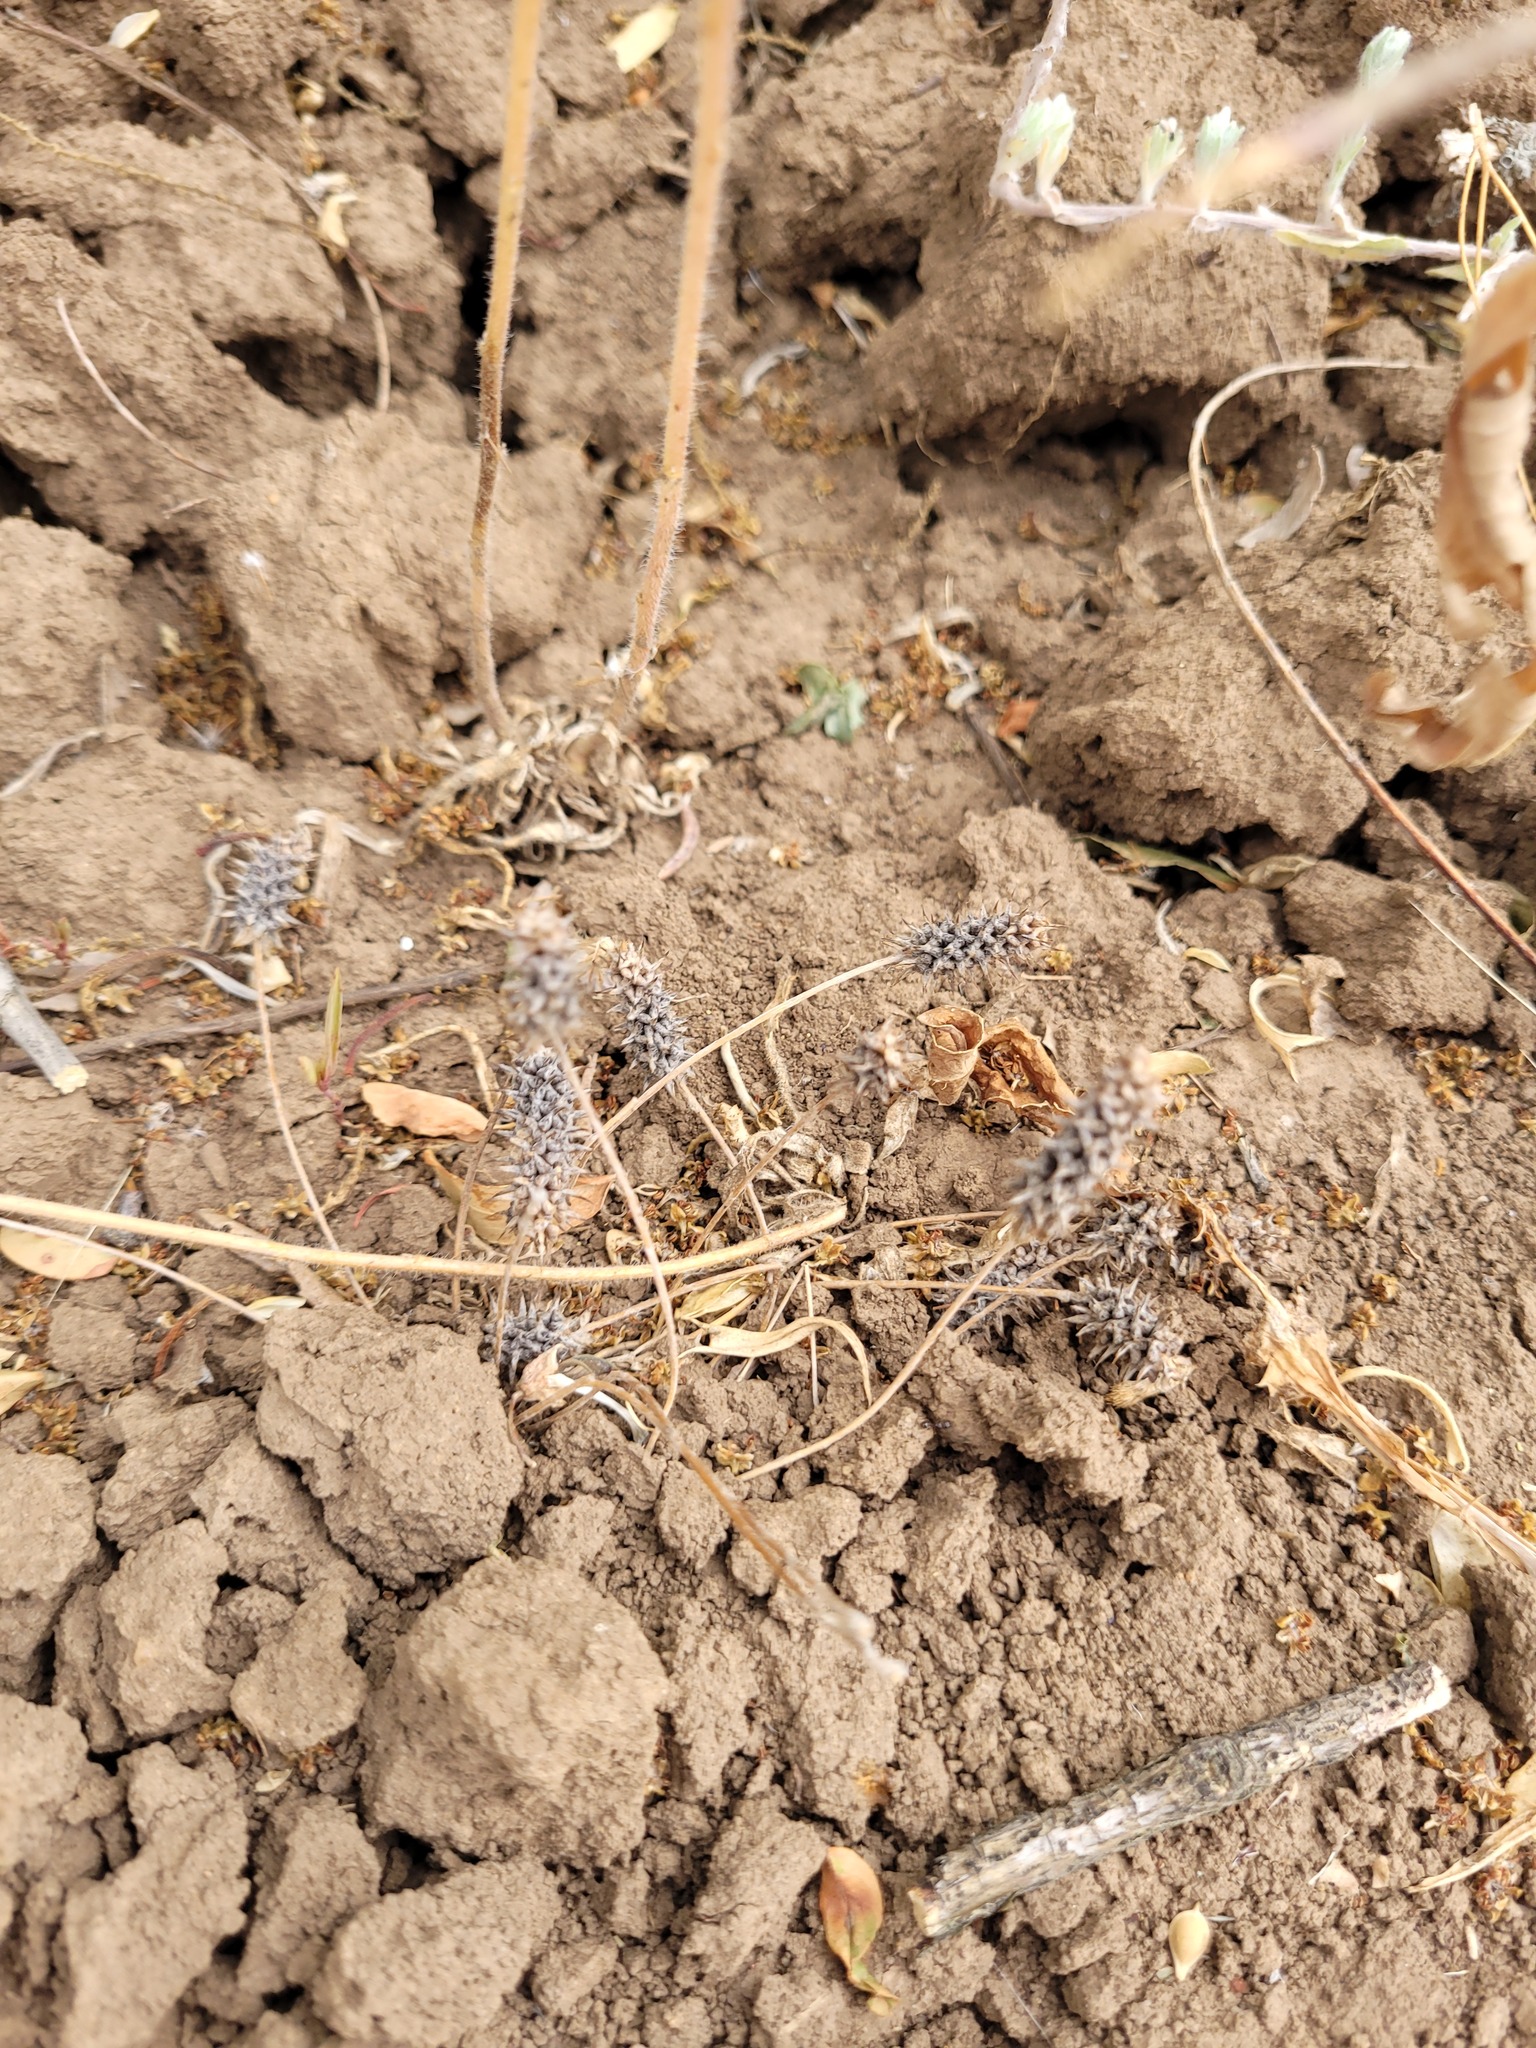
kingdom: Plantae
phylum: Tracheophyta
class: Magnoliopsida
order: Ranunculales
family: Ranunculaceae
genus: Ceratocephala
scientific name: Ceratocephala orthoceras
